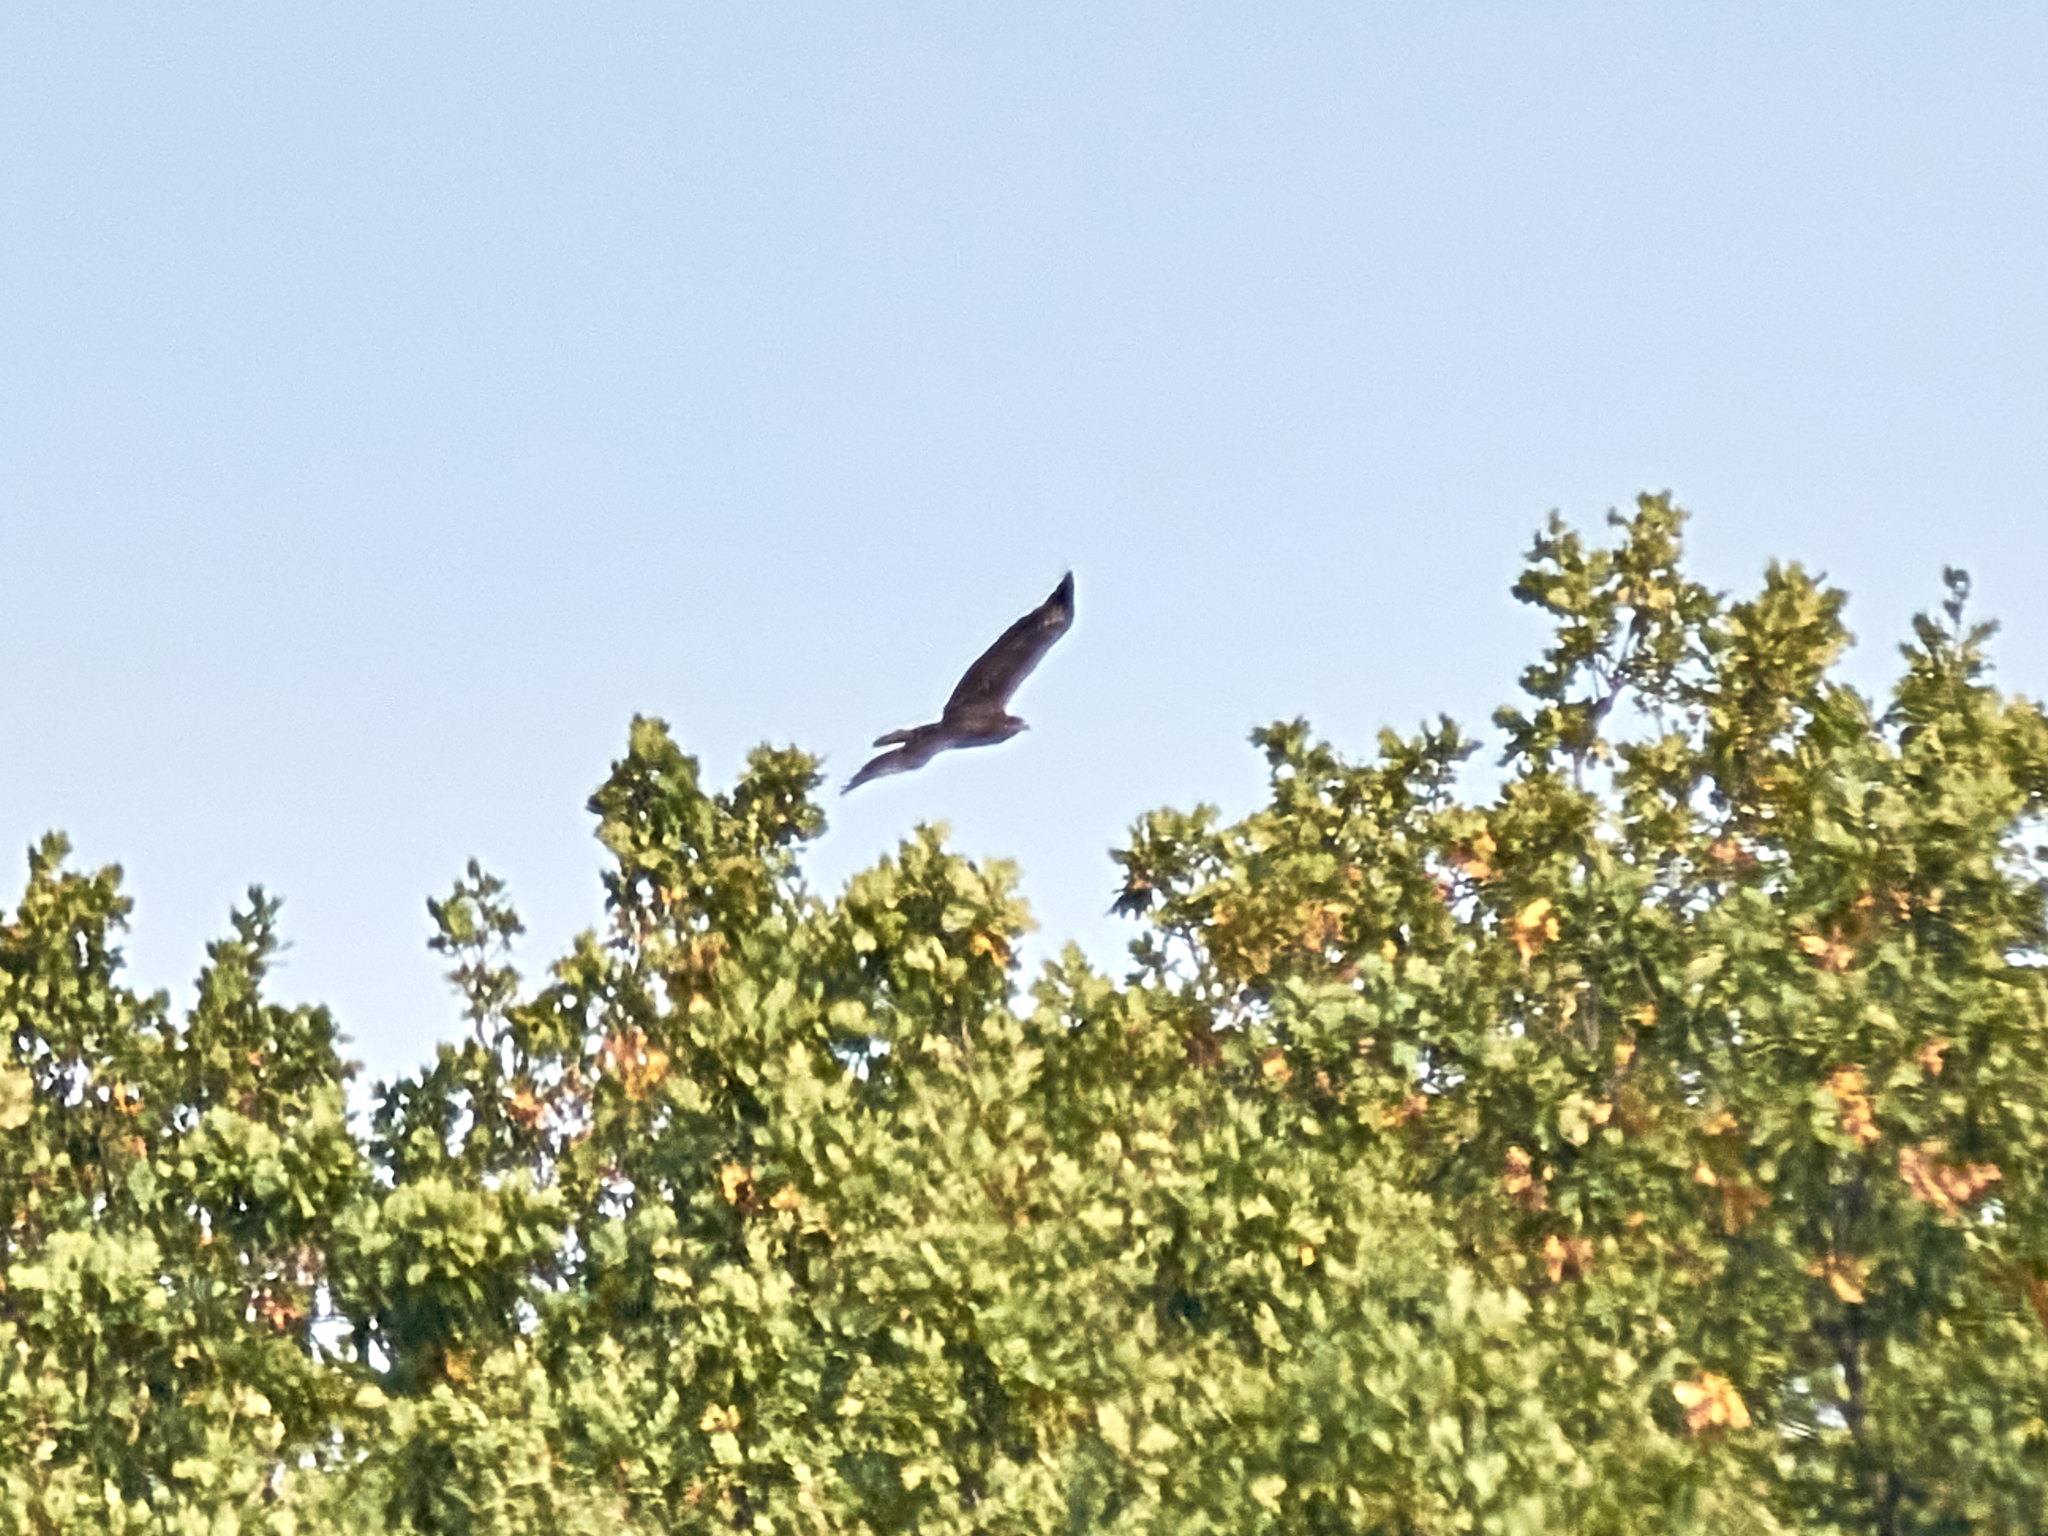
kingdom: Animalia
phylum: Chordata
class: Aves
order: Accipitriformes
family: Accipitridae
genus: Buteo
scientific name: Buteo buteo
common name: Common buzzard
